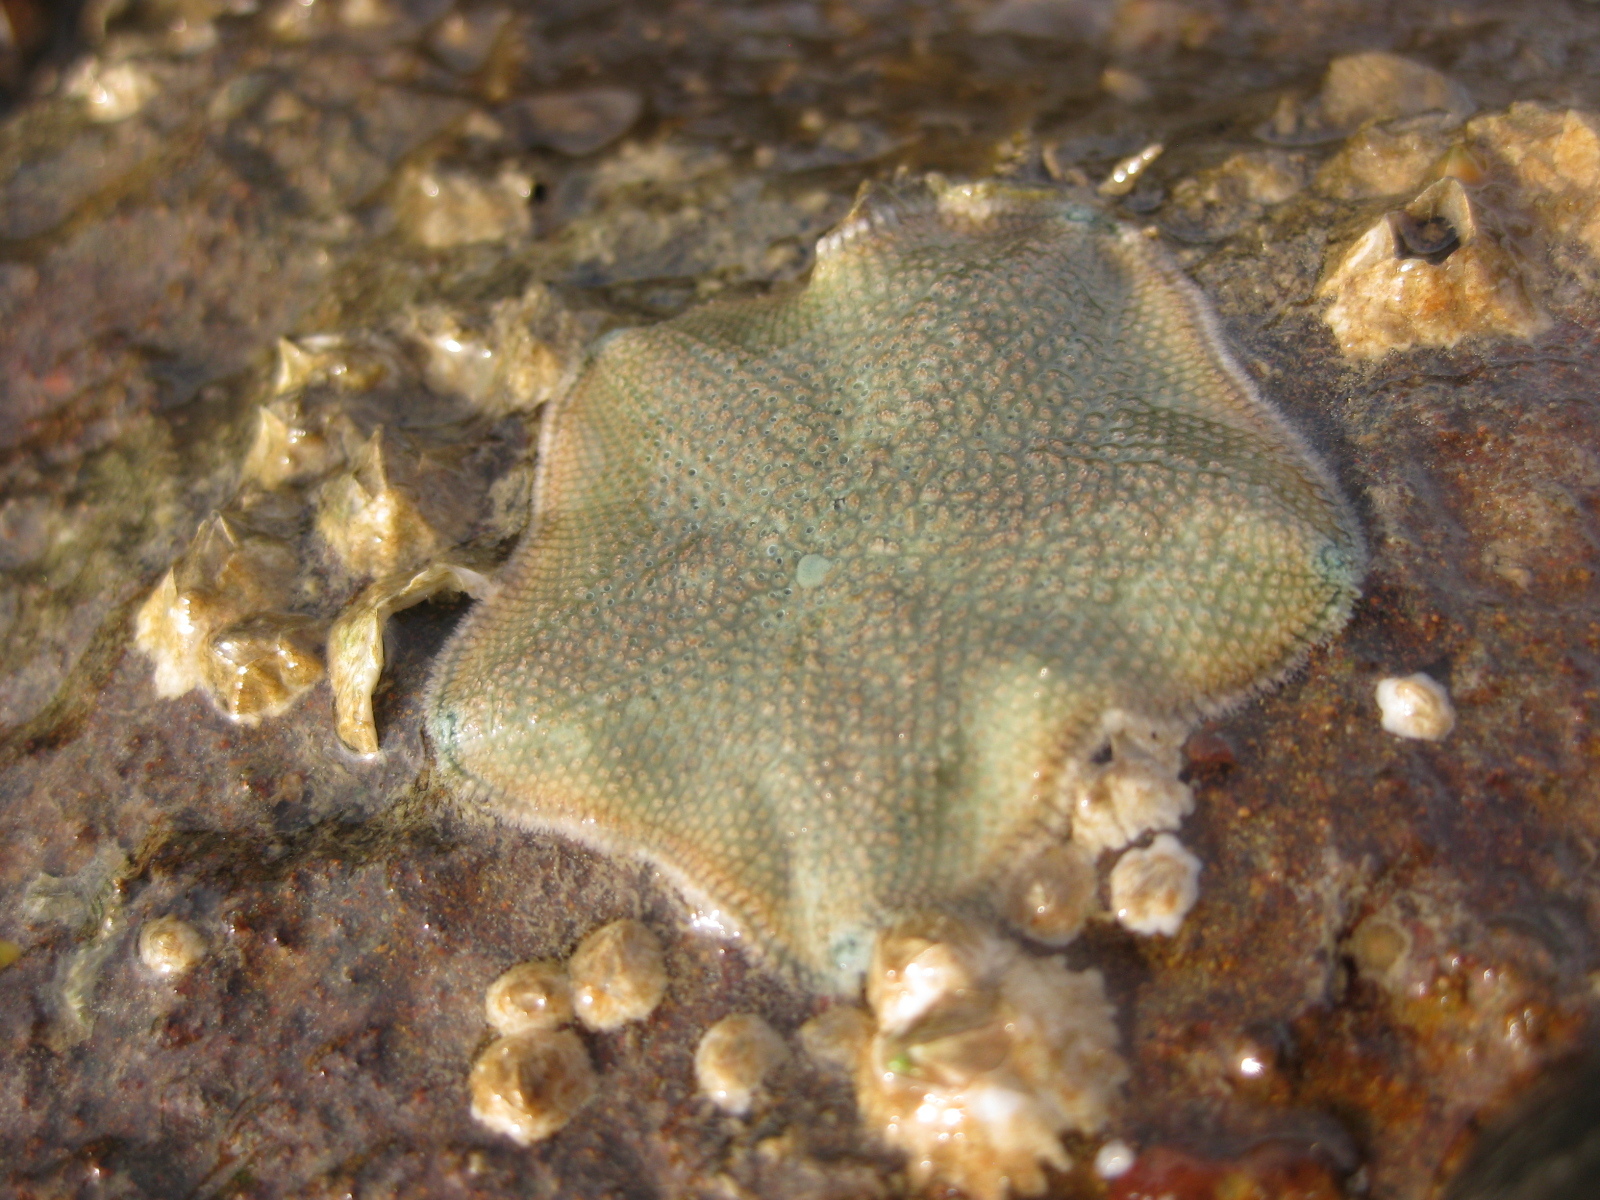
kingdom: Animalia
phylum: Echinodermata
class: Asteroidea
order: Valvatida
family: Asterinidae
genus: Patiriella
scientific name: Patiriella regularis
